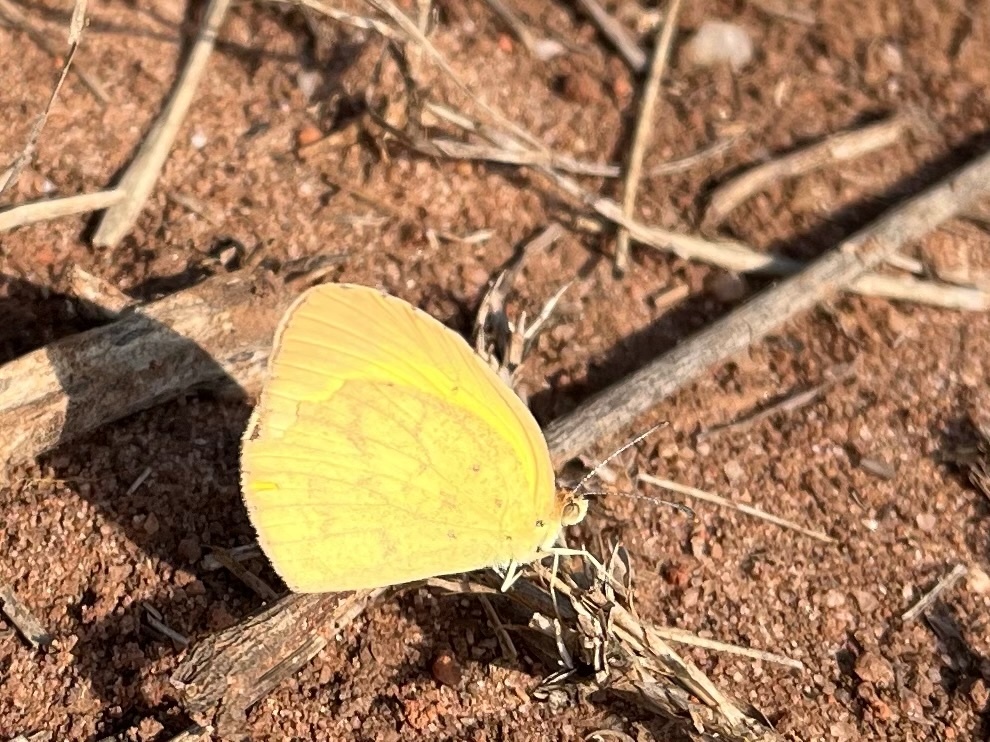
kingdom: Animalia
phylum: Arthropoda
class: Insecta
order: Lepidoptera
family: Pieridae
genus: Eurema
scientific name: Eurema brigitta
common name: Small grass yellow
